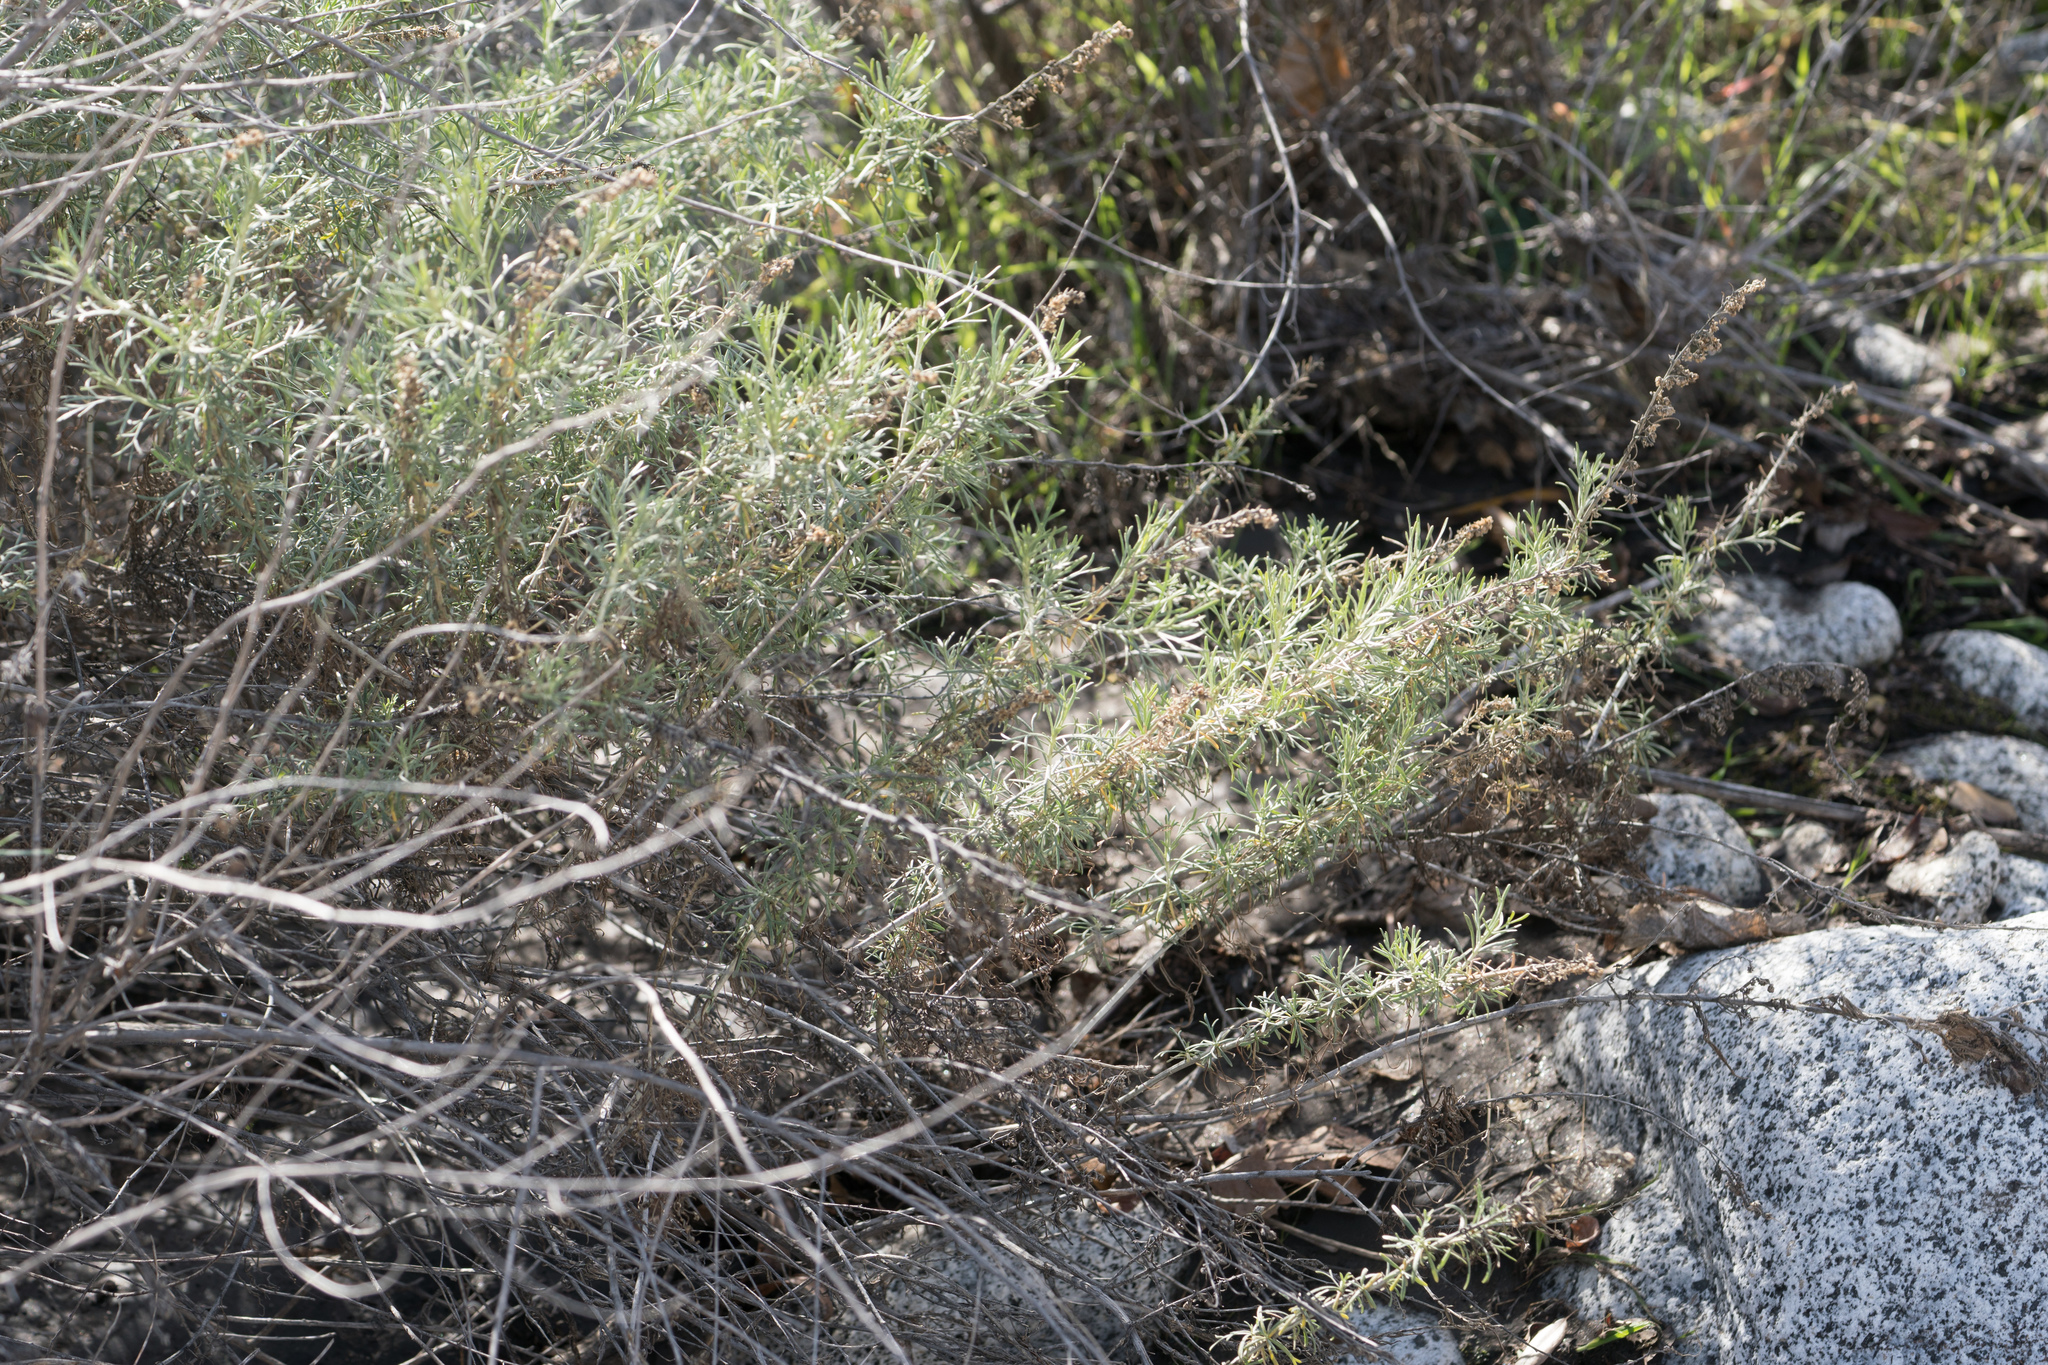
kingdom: Plantae
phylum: Tracheophyta
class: Magnoliopsida
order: Asterales
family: Asteraceae
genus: Artemisia
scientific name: Artemisia californica
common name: California sagebrush
